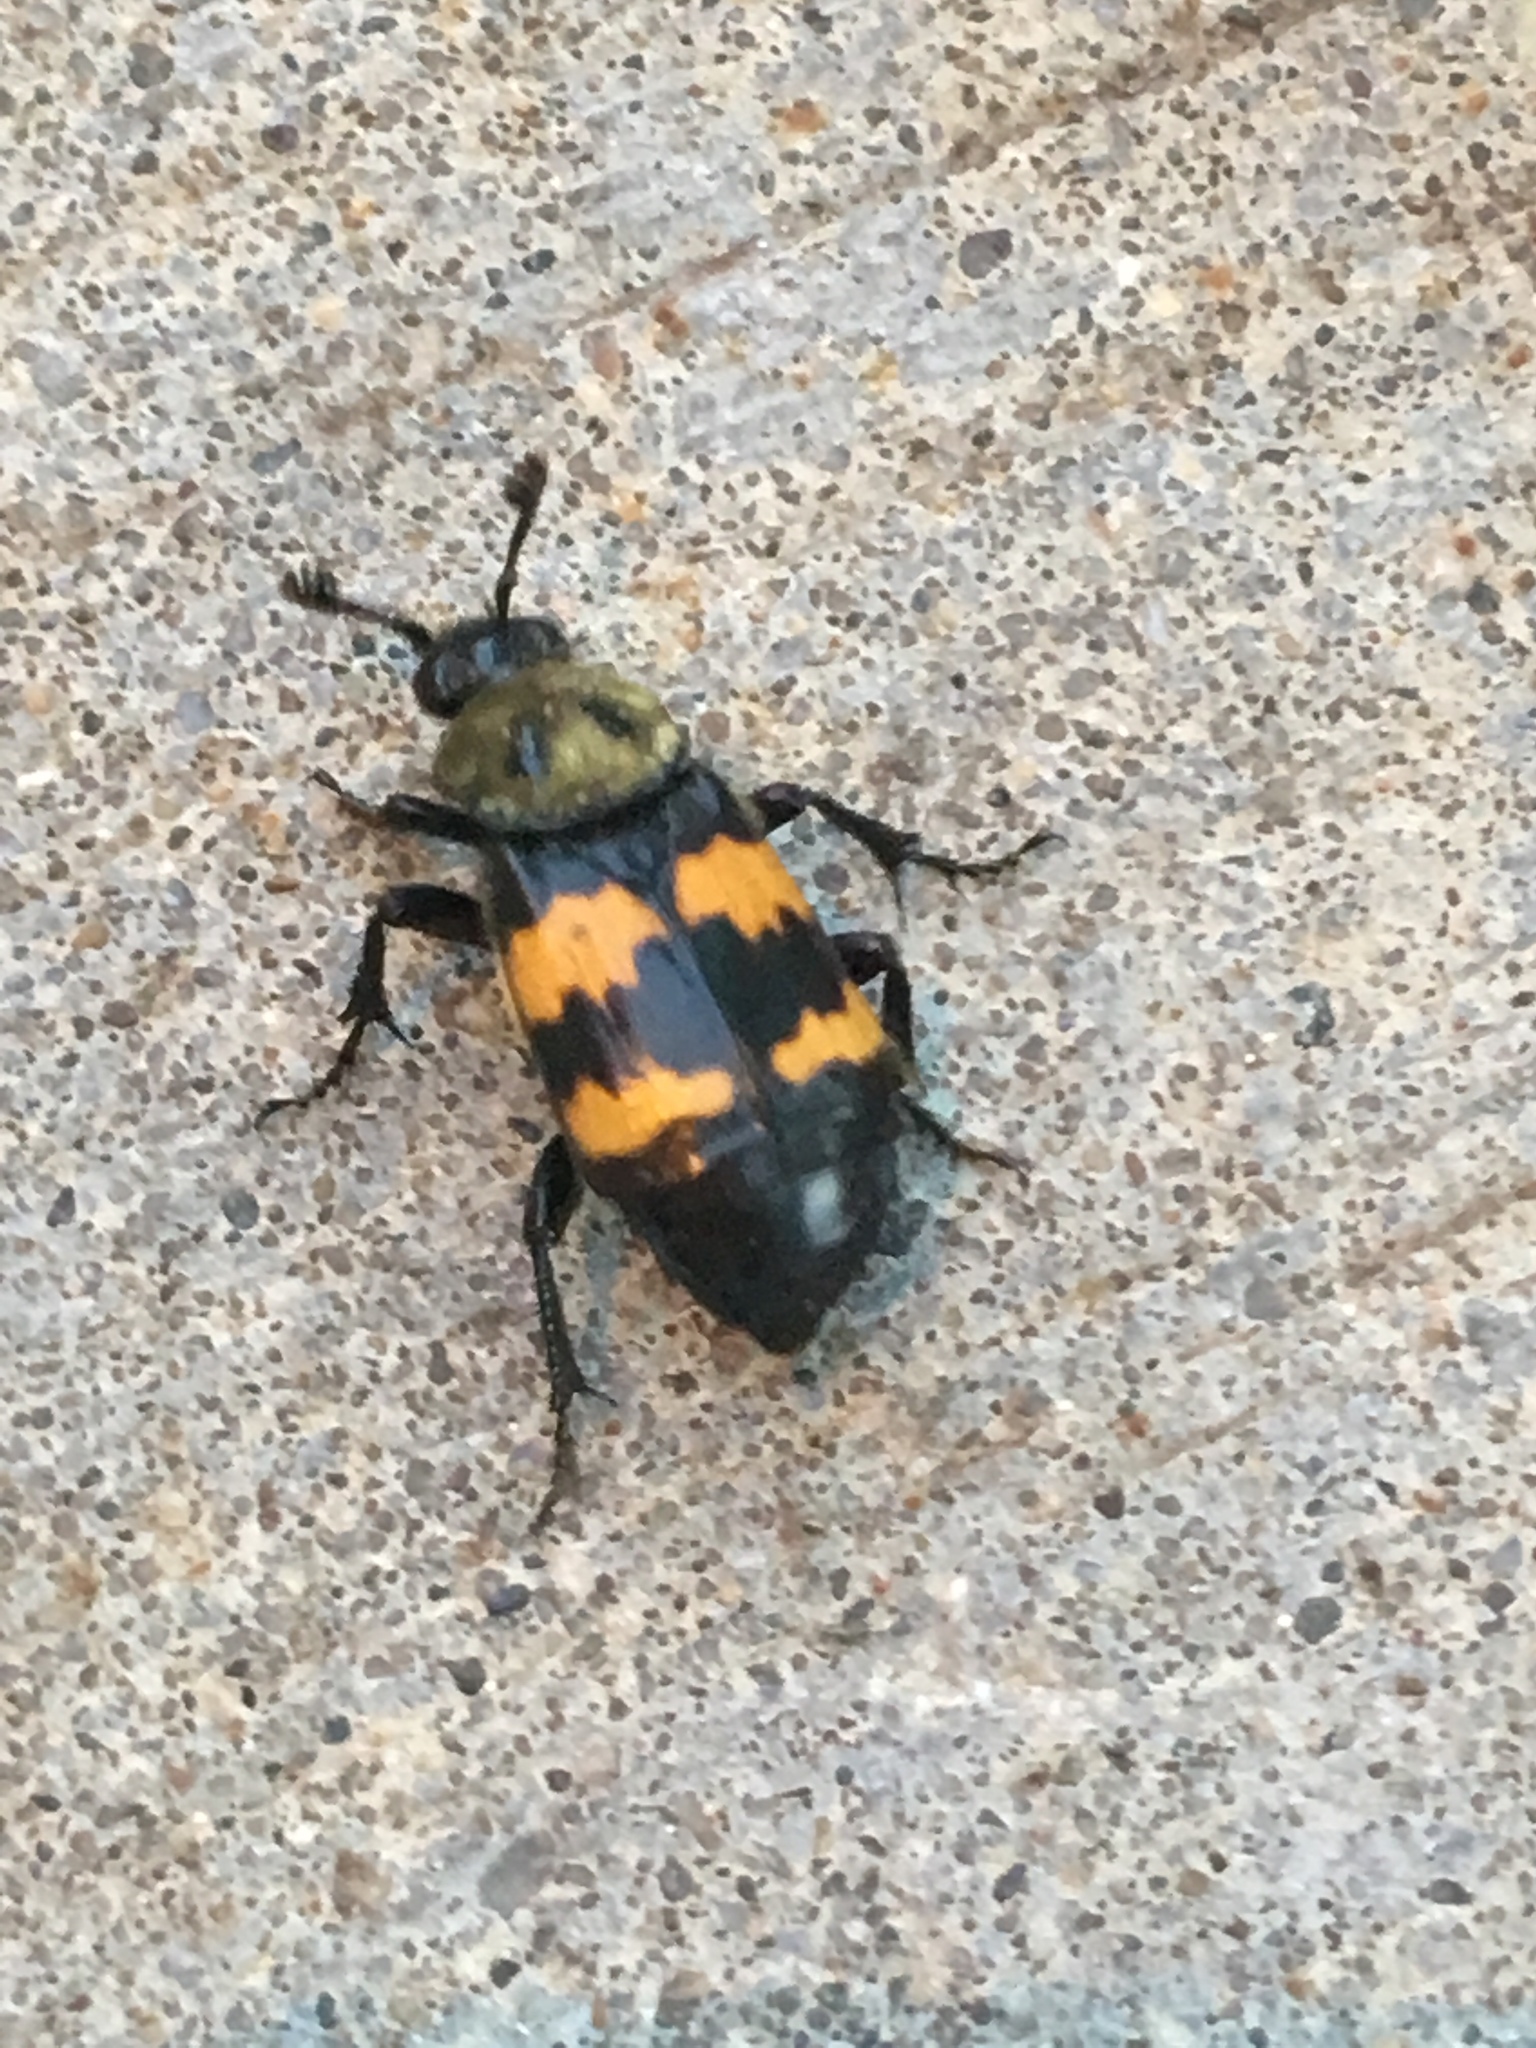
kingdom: Animalia
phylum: Arthropoda
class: Insecta
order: Coleoptera
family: Staphylinidae
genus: Nicrophorus
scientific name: Nicrophorus tomentosus
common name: Tomentose burying beetle
